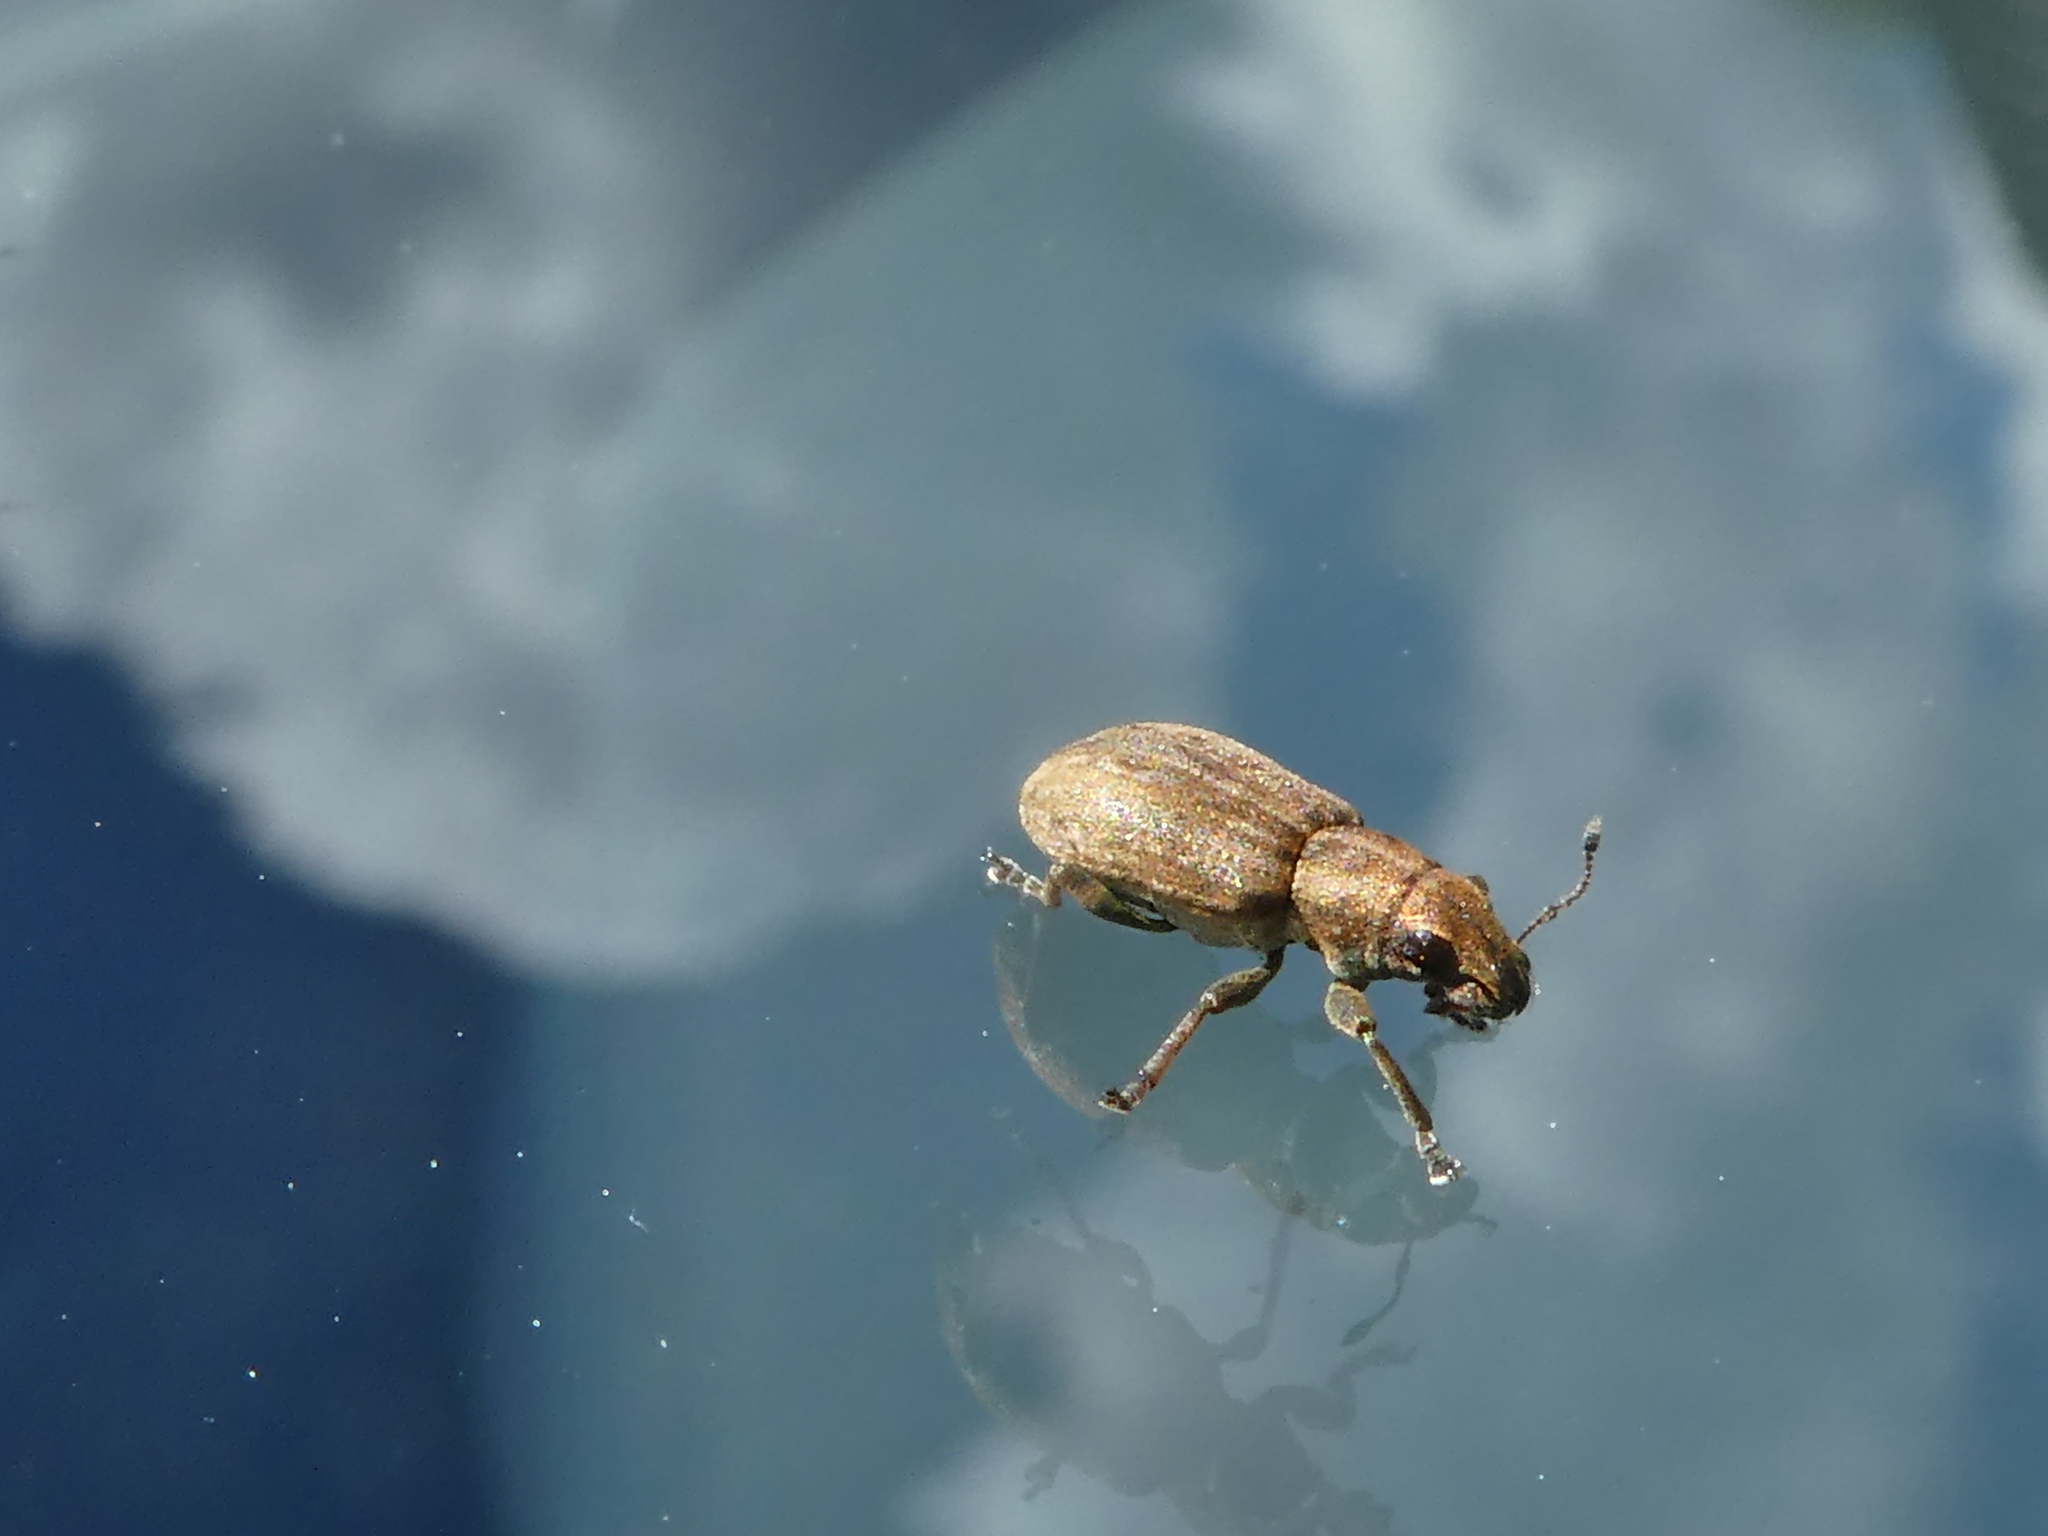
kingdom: Animalia
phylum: Arthropoda
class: Insecta
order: Coleoptera
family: Curculionidae
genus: Sitona
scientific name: Sitona obsoletus
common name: Weevil
